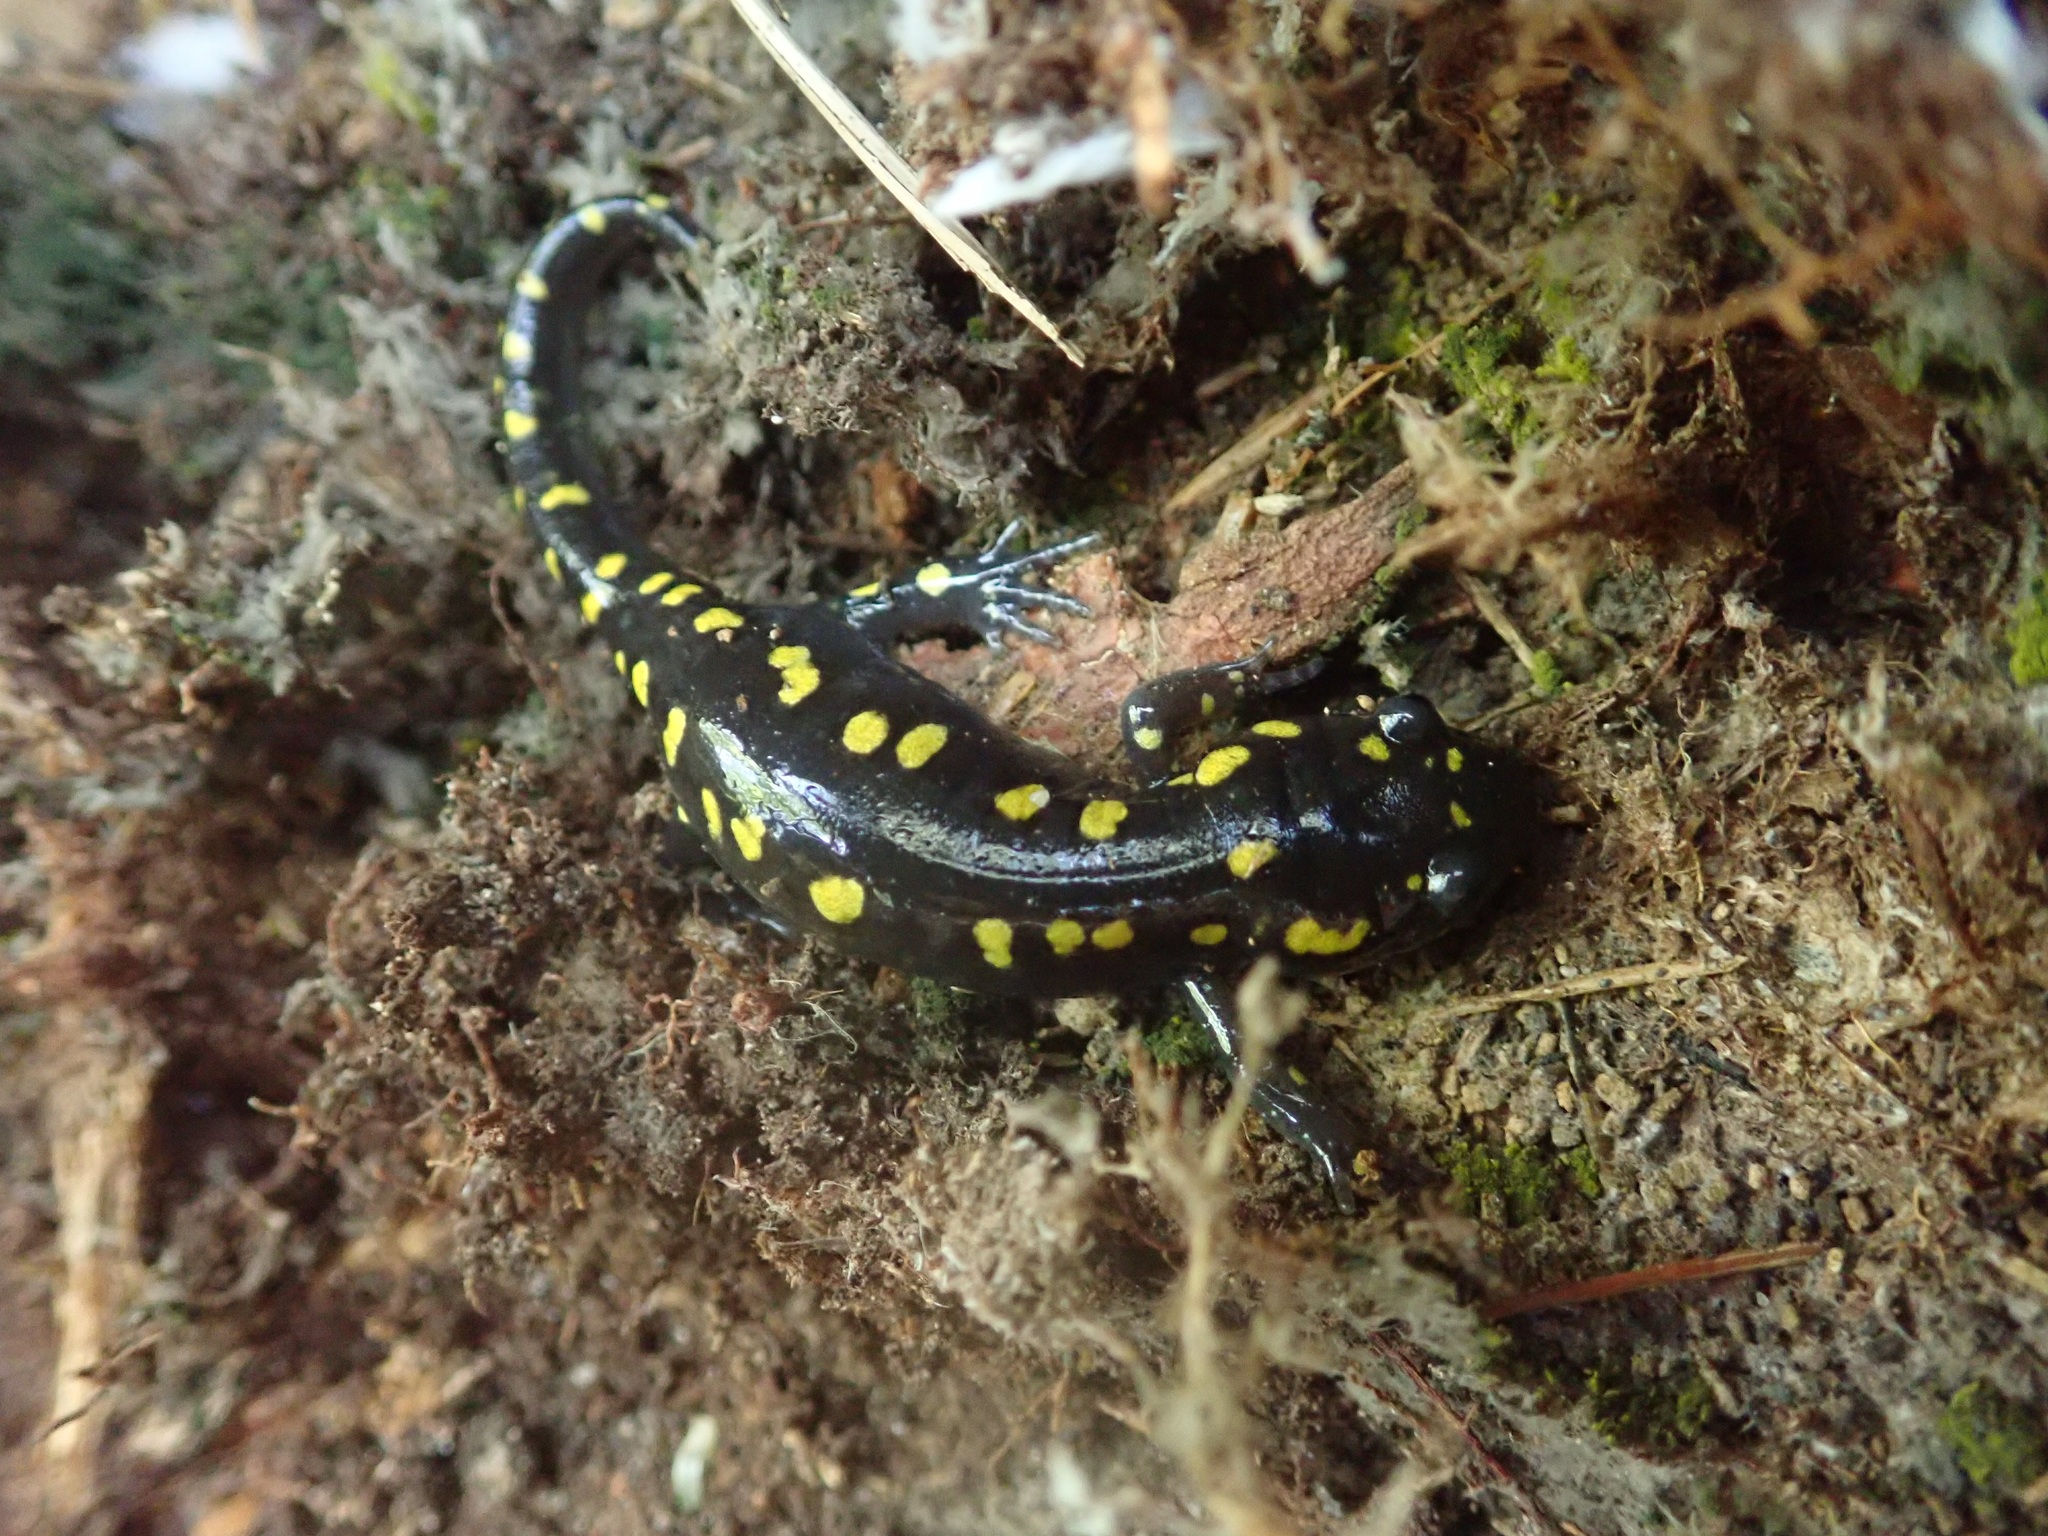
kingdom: Animalia
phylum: Chordata
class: Amphibia
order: Caudata
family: Ambystomatidae
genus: Ambystoma
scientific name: Ambystoma maculatum
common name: Spotted salamander
